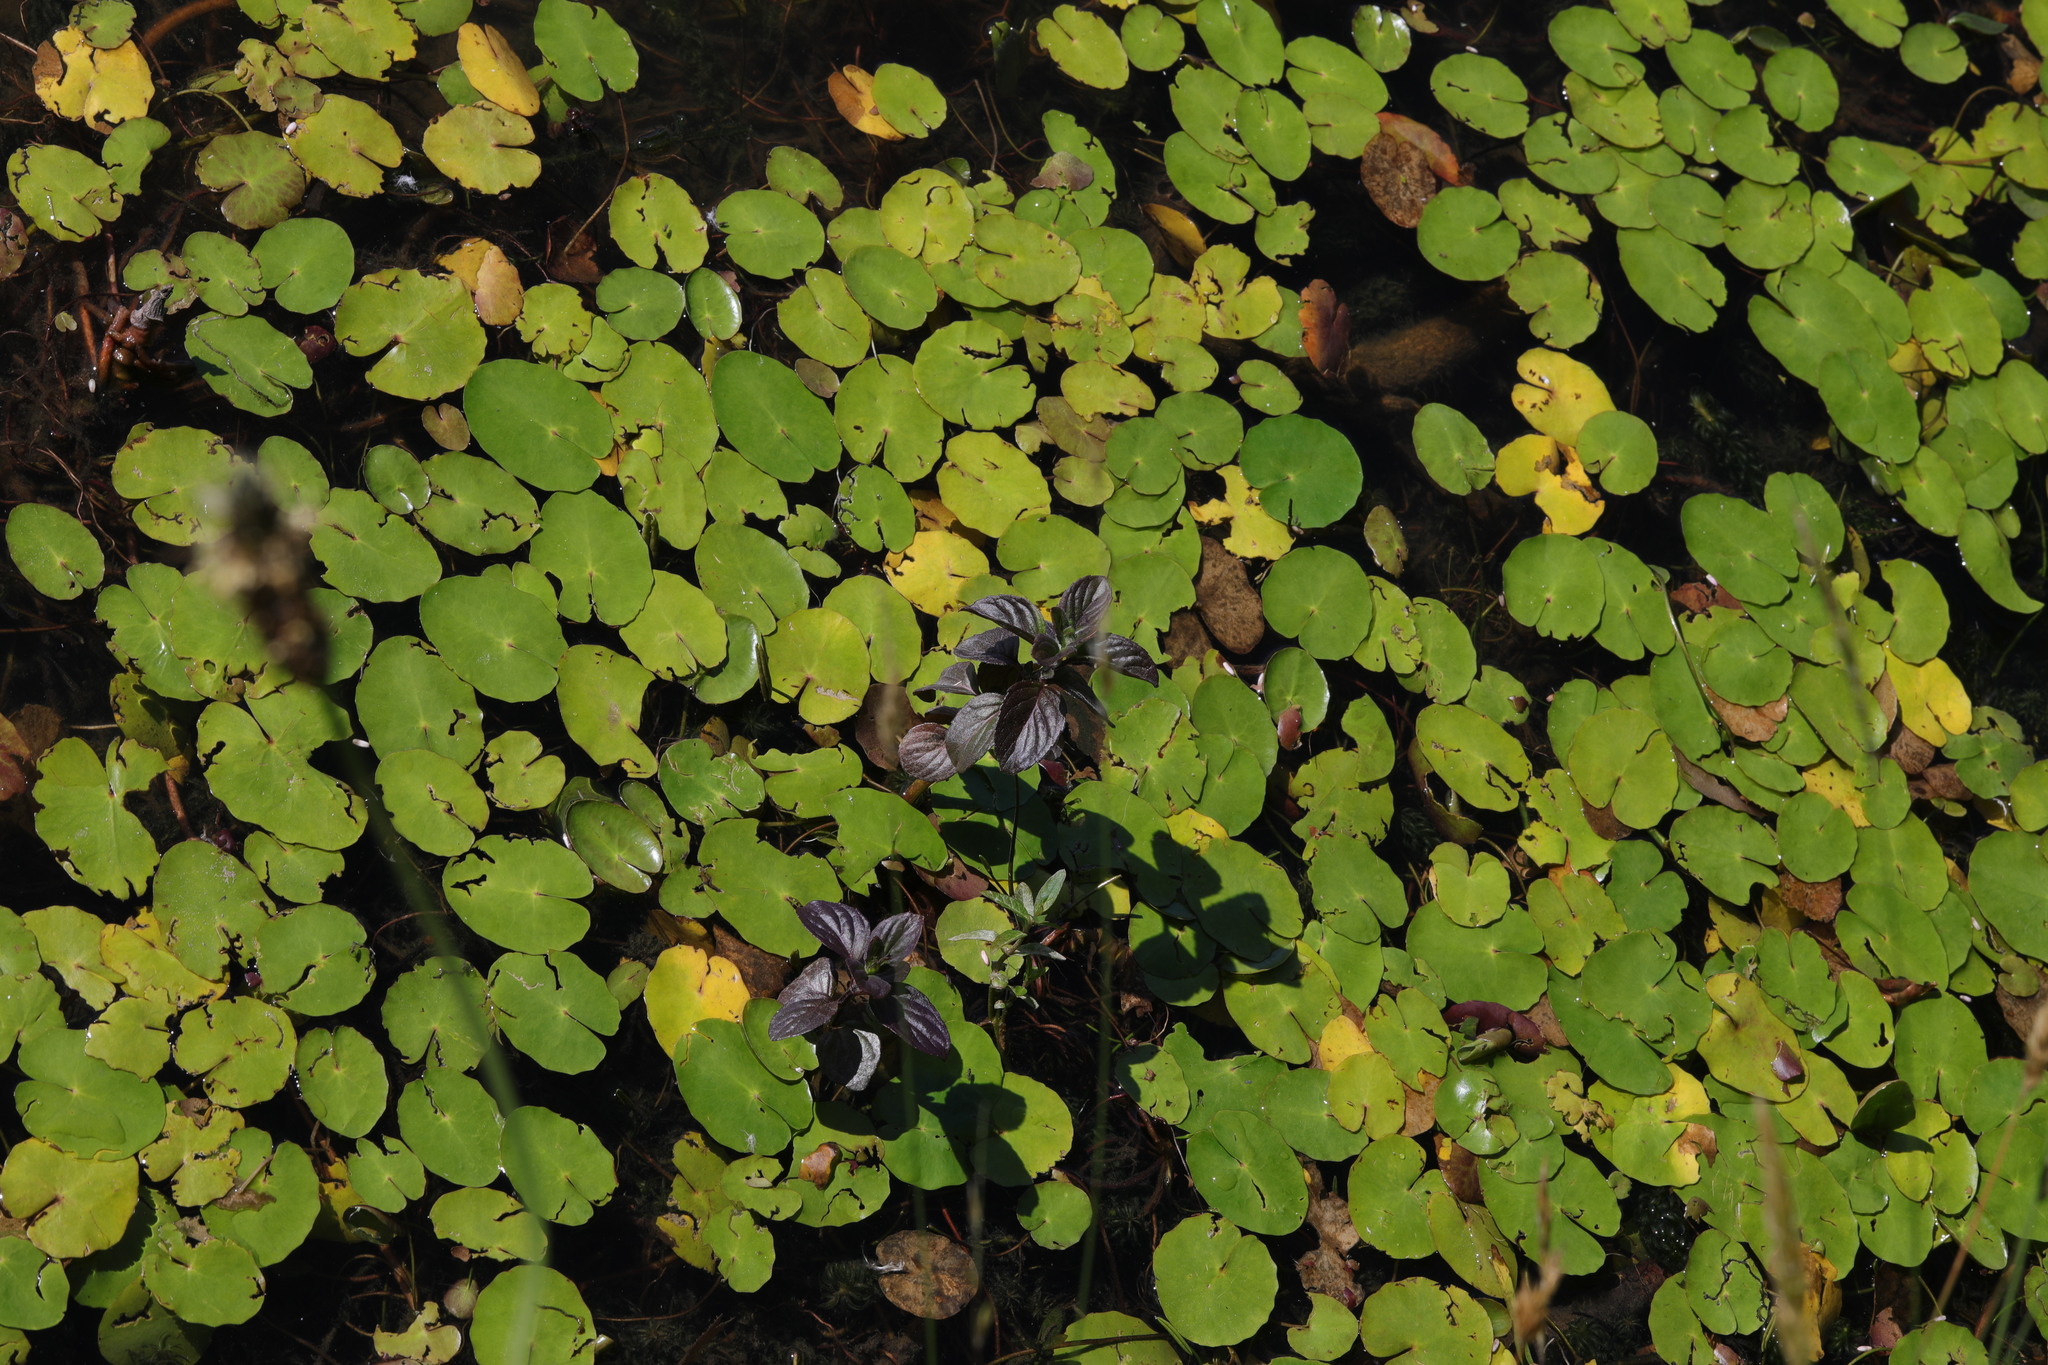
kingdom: Plantae
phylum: Tracheophyta
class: Magnoliopsida
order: Lamiales
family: Lamiaceae
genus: Mentha
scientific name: Mentha aquatica
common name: Water mint
